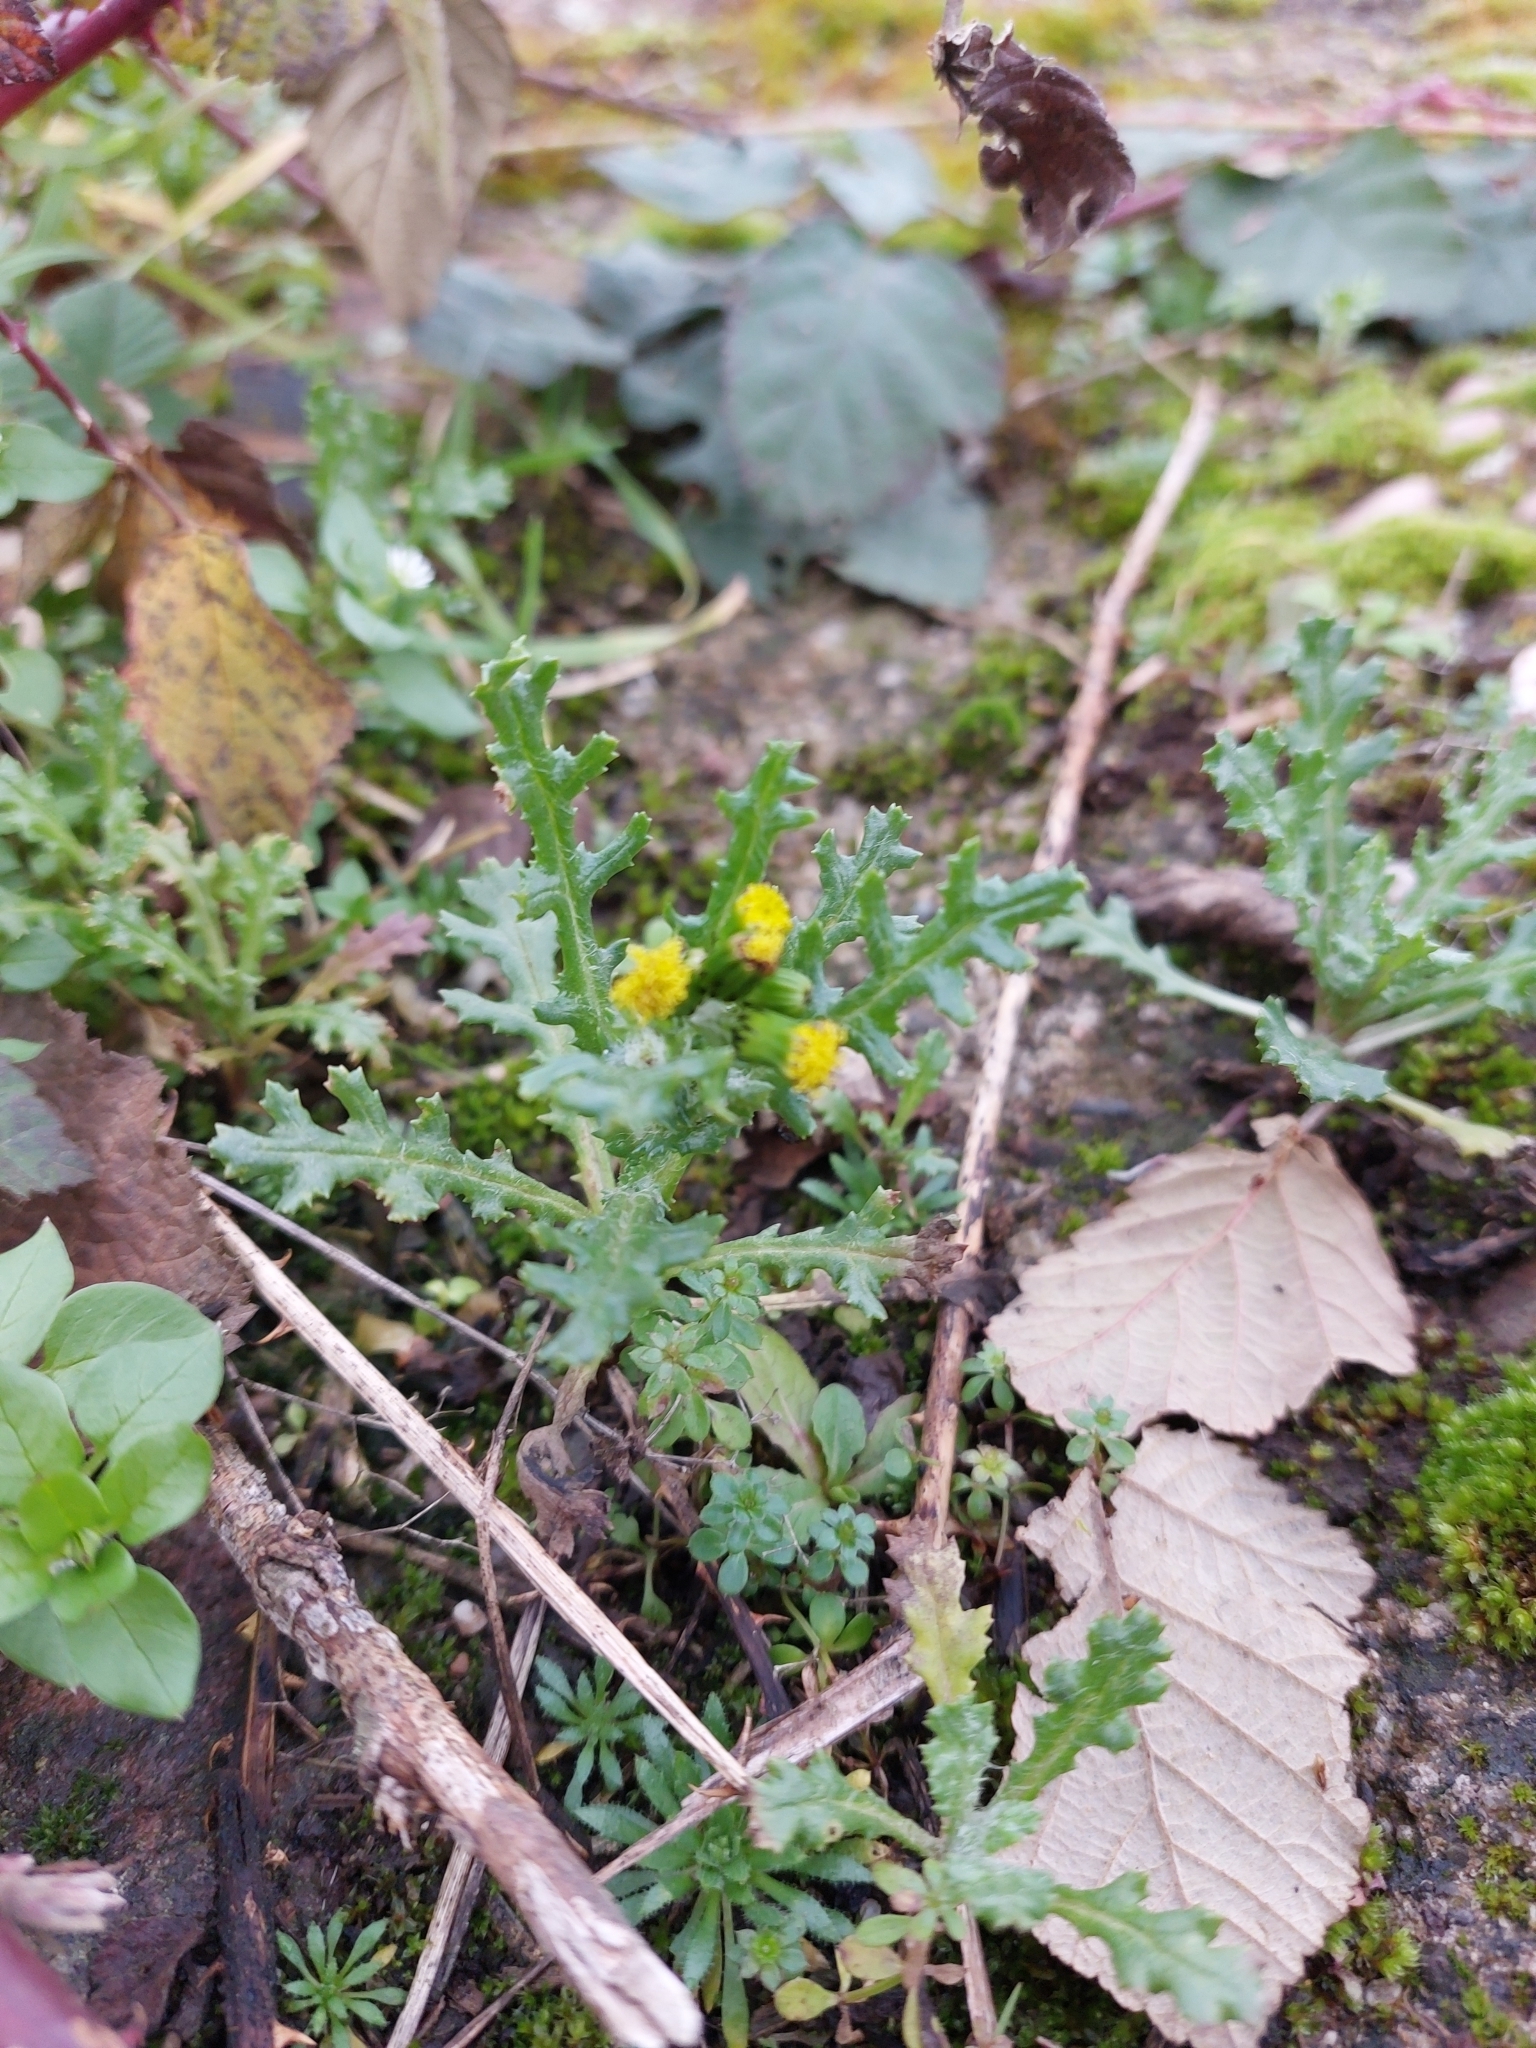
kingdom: Plantae
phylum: Tracheophyta
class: Magnoliopsida
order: Asterales
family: Asteraceae
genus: Senecio
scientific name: Senecio vulgaris
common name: Old-man-in-the-spring
